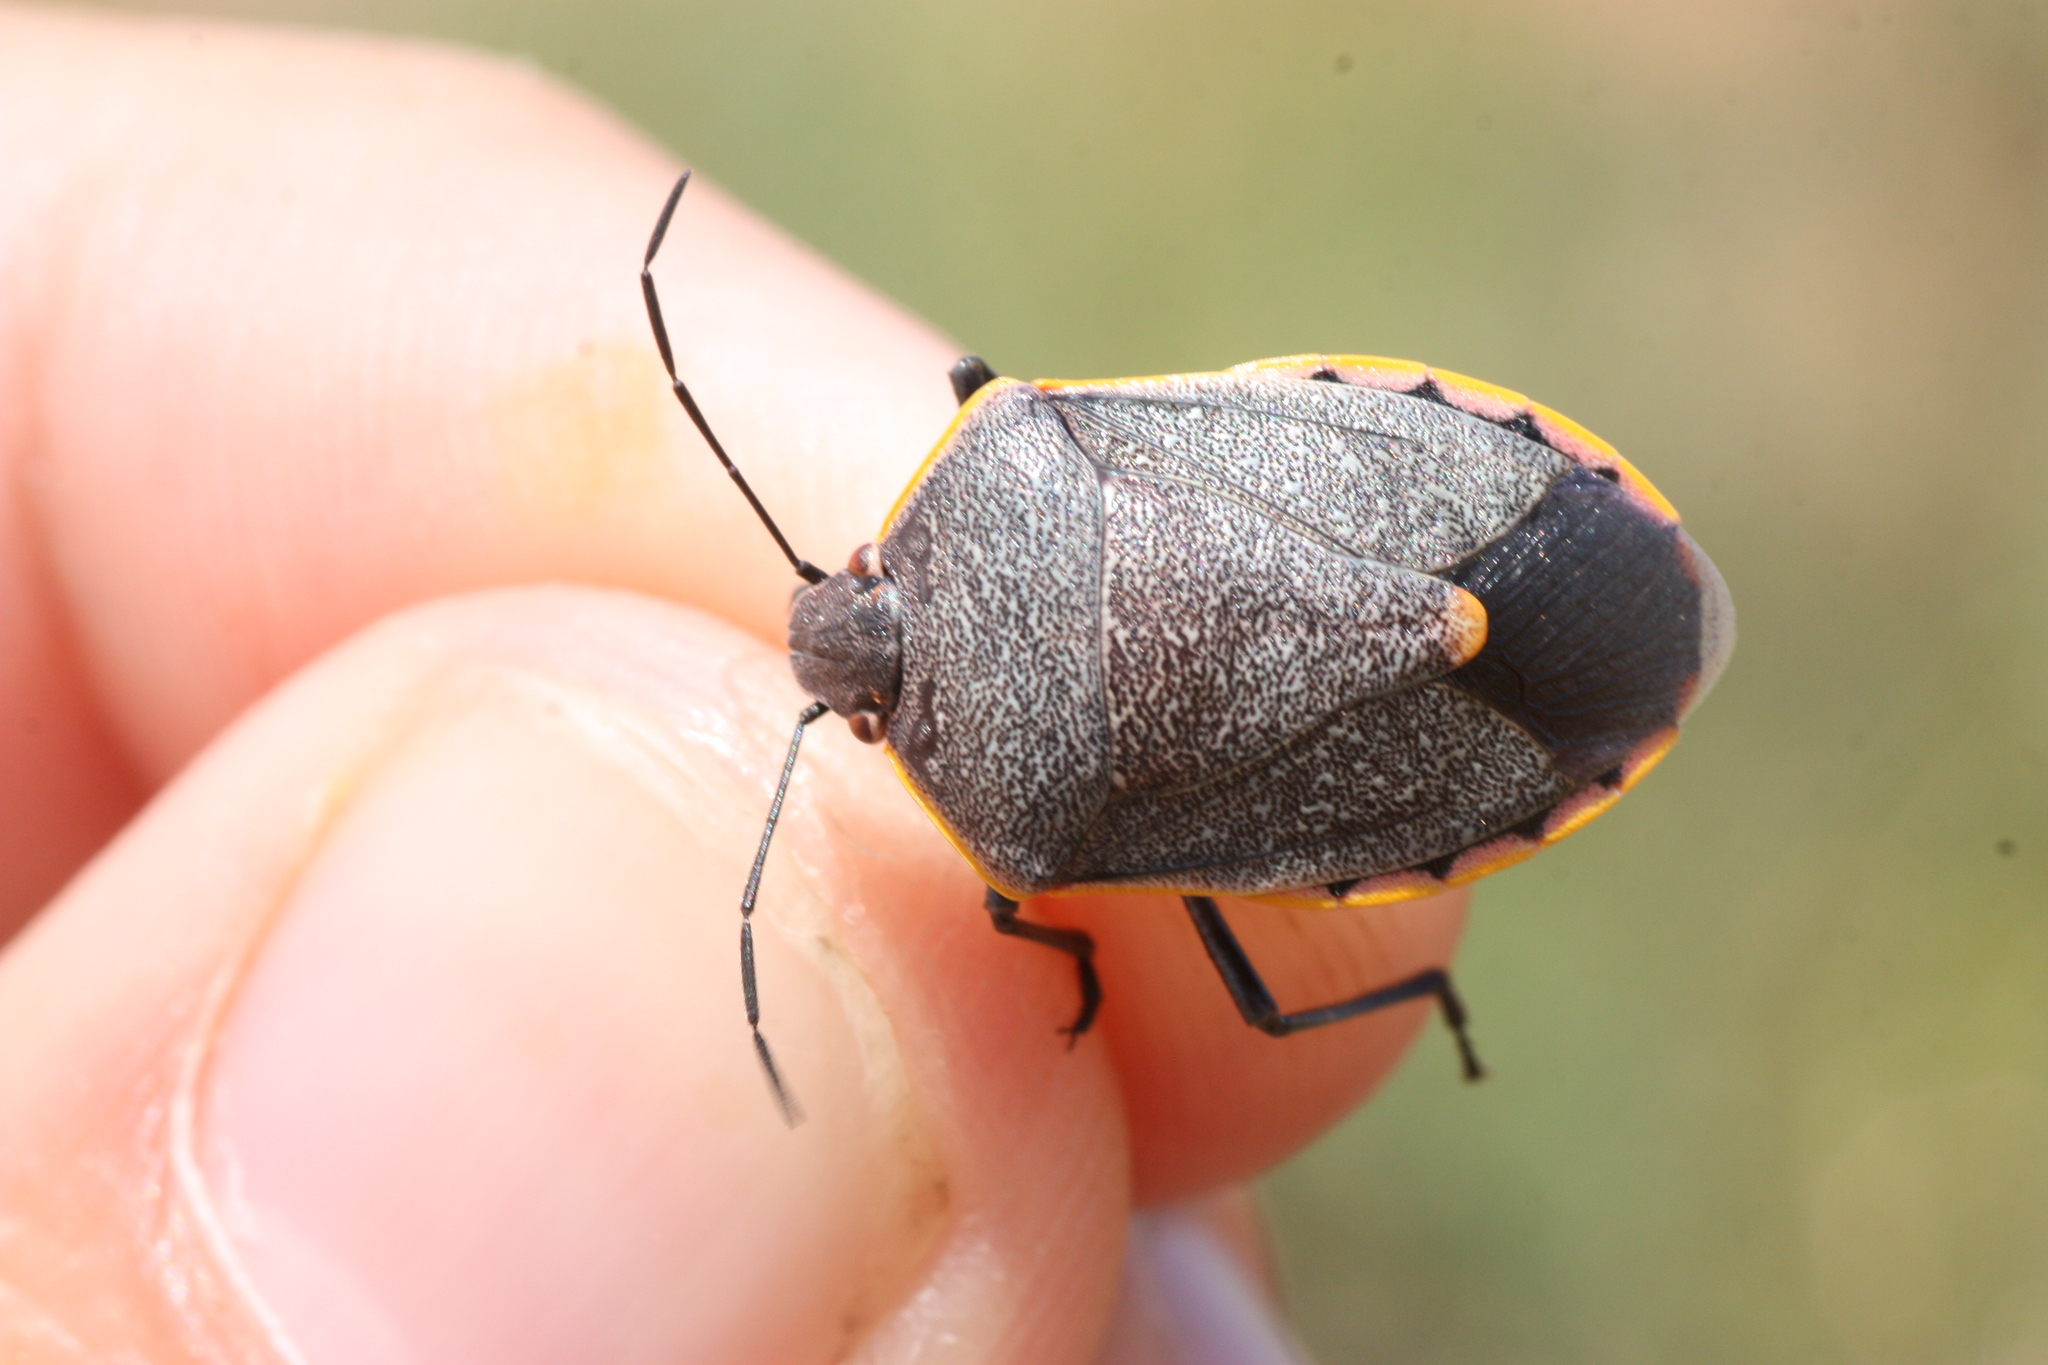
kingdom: Animalia
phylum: Arthropoda
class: Insecta
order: Hemiptera
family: Pentatomidae
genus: Chlorochroa
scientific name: Chlorochroa ligata
